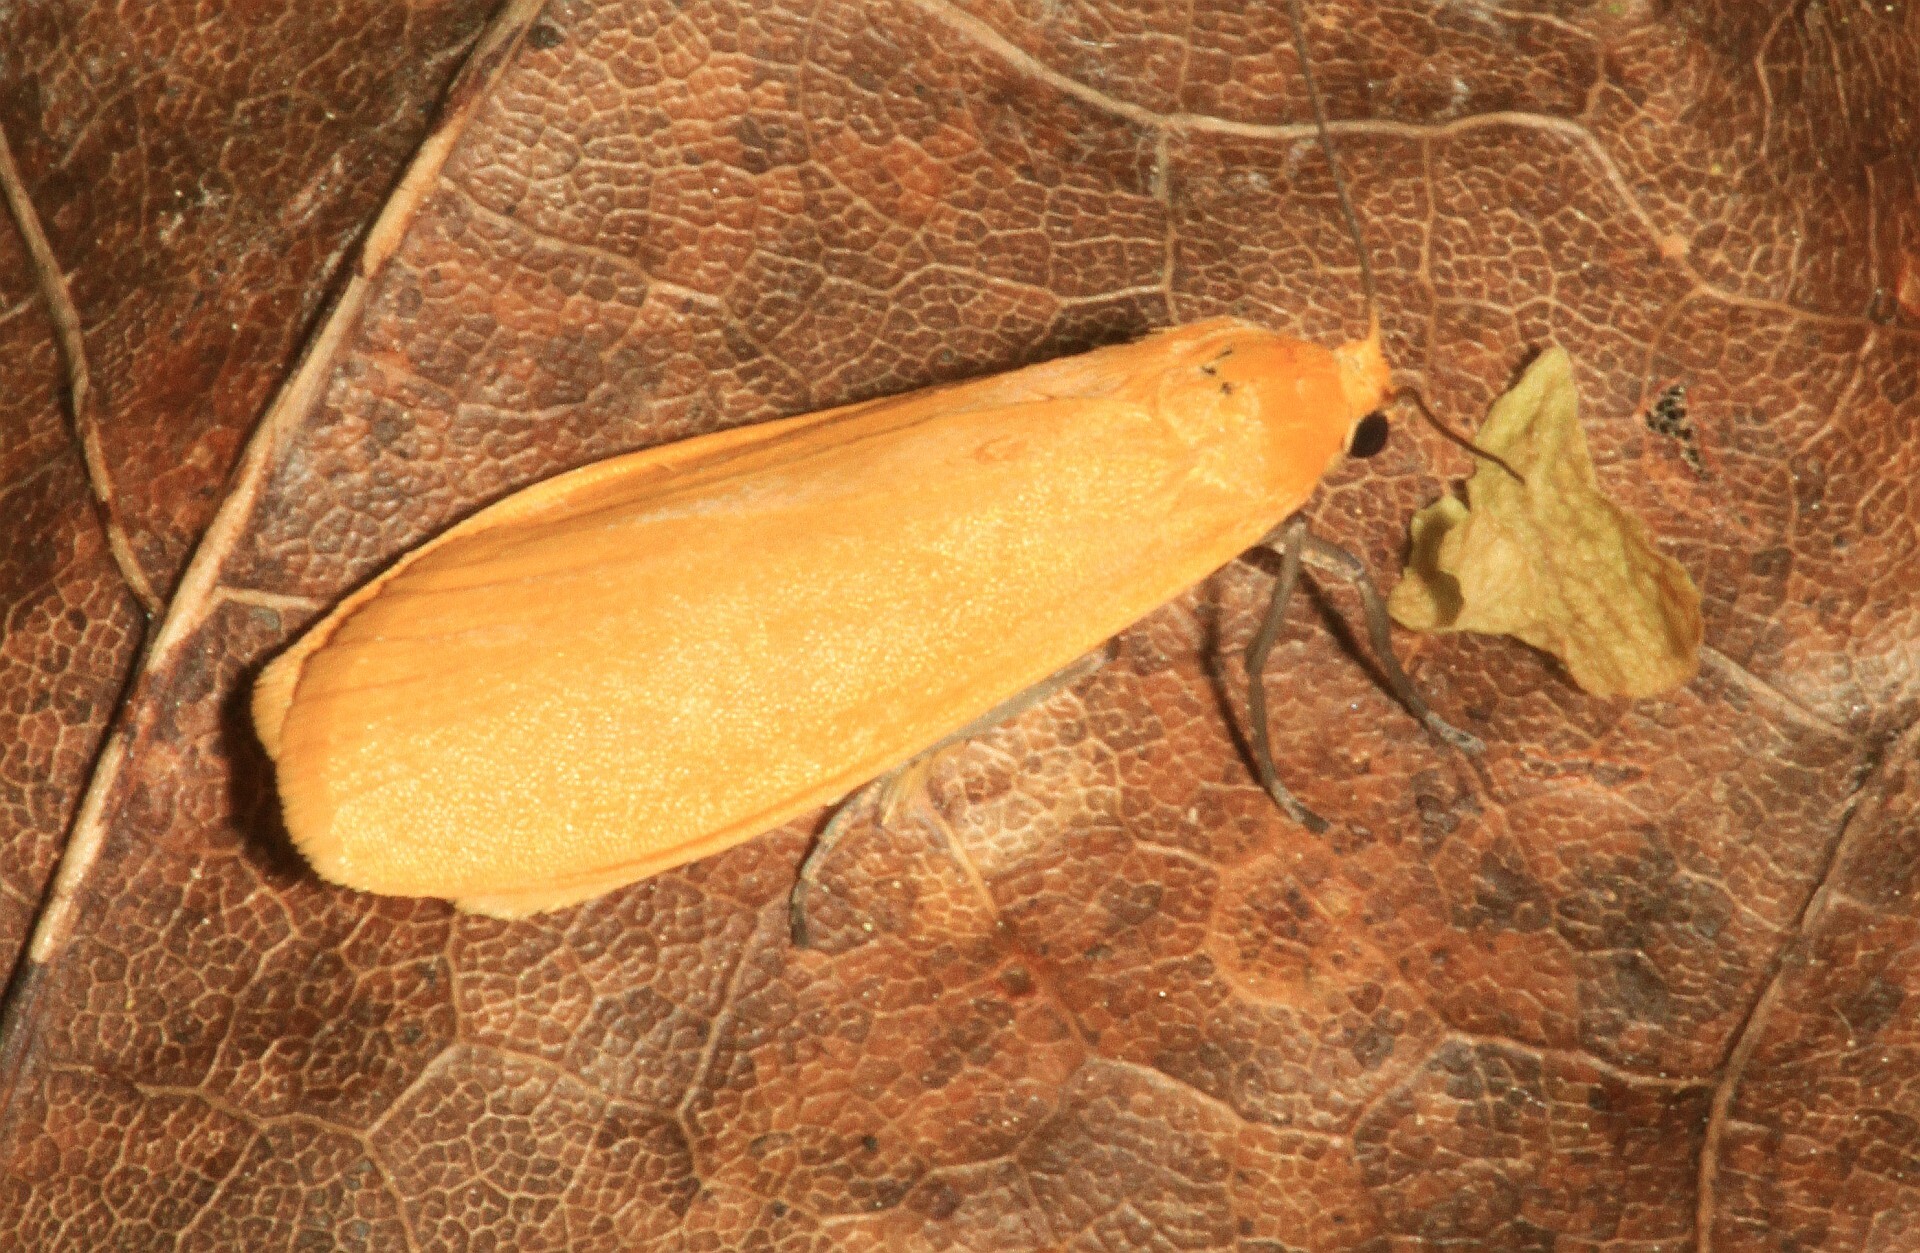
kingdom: Animalia
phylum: Arthropoda
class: Insecta
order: Lepidoptera
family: Erebidae
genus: Wittia
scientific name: Wittia sororcula
